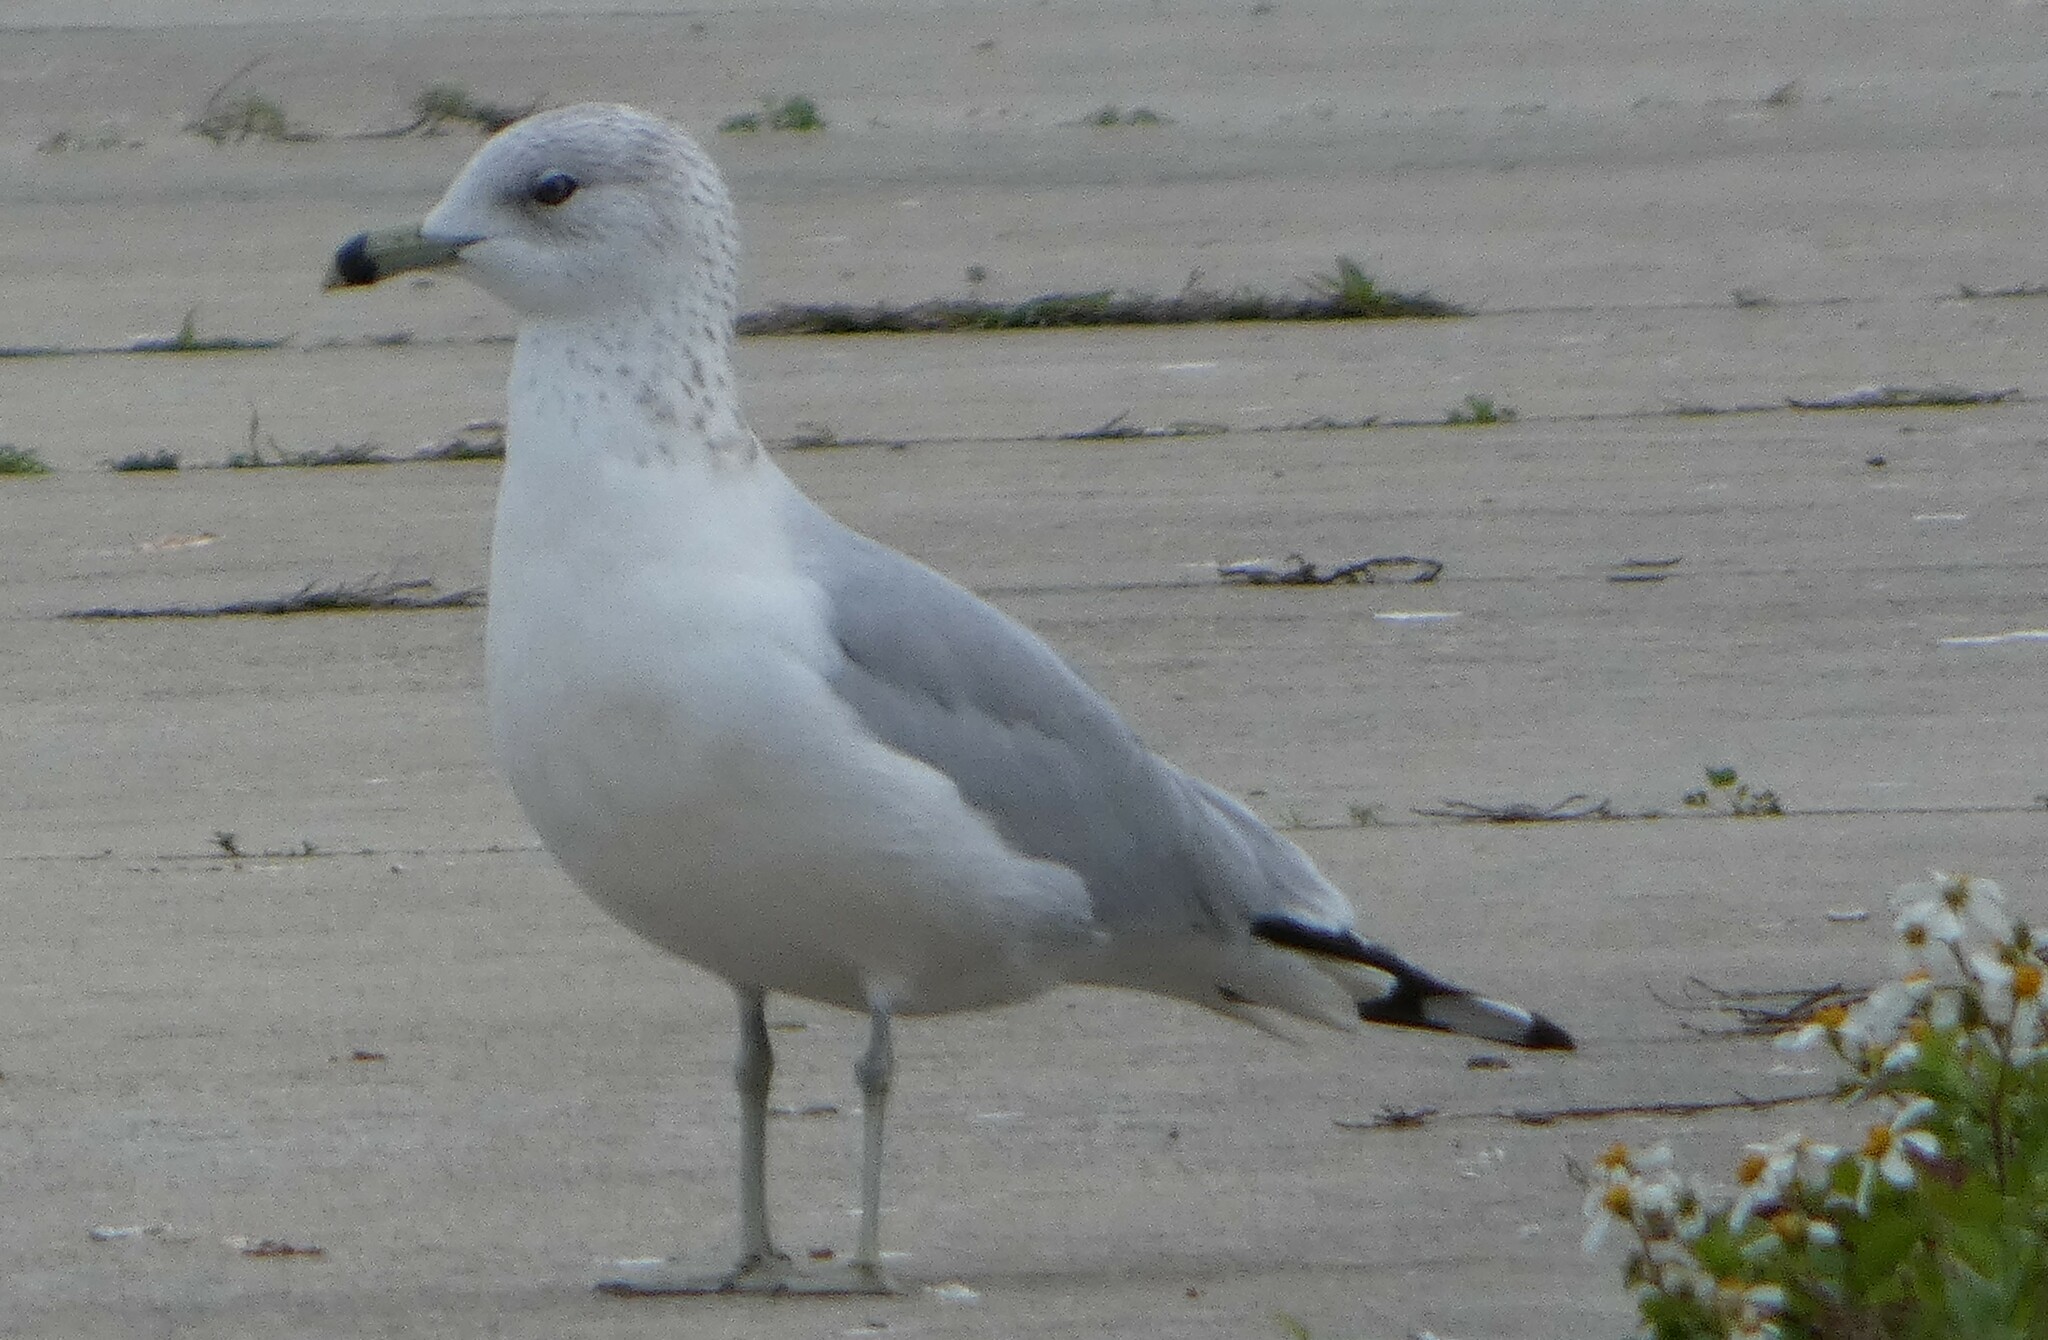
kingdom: Animalia
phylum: Chordata
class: Aves
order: Charadriiformes
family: Laridae
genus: Larus
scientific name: Larus delawarensis
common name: Ring-billed gull
